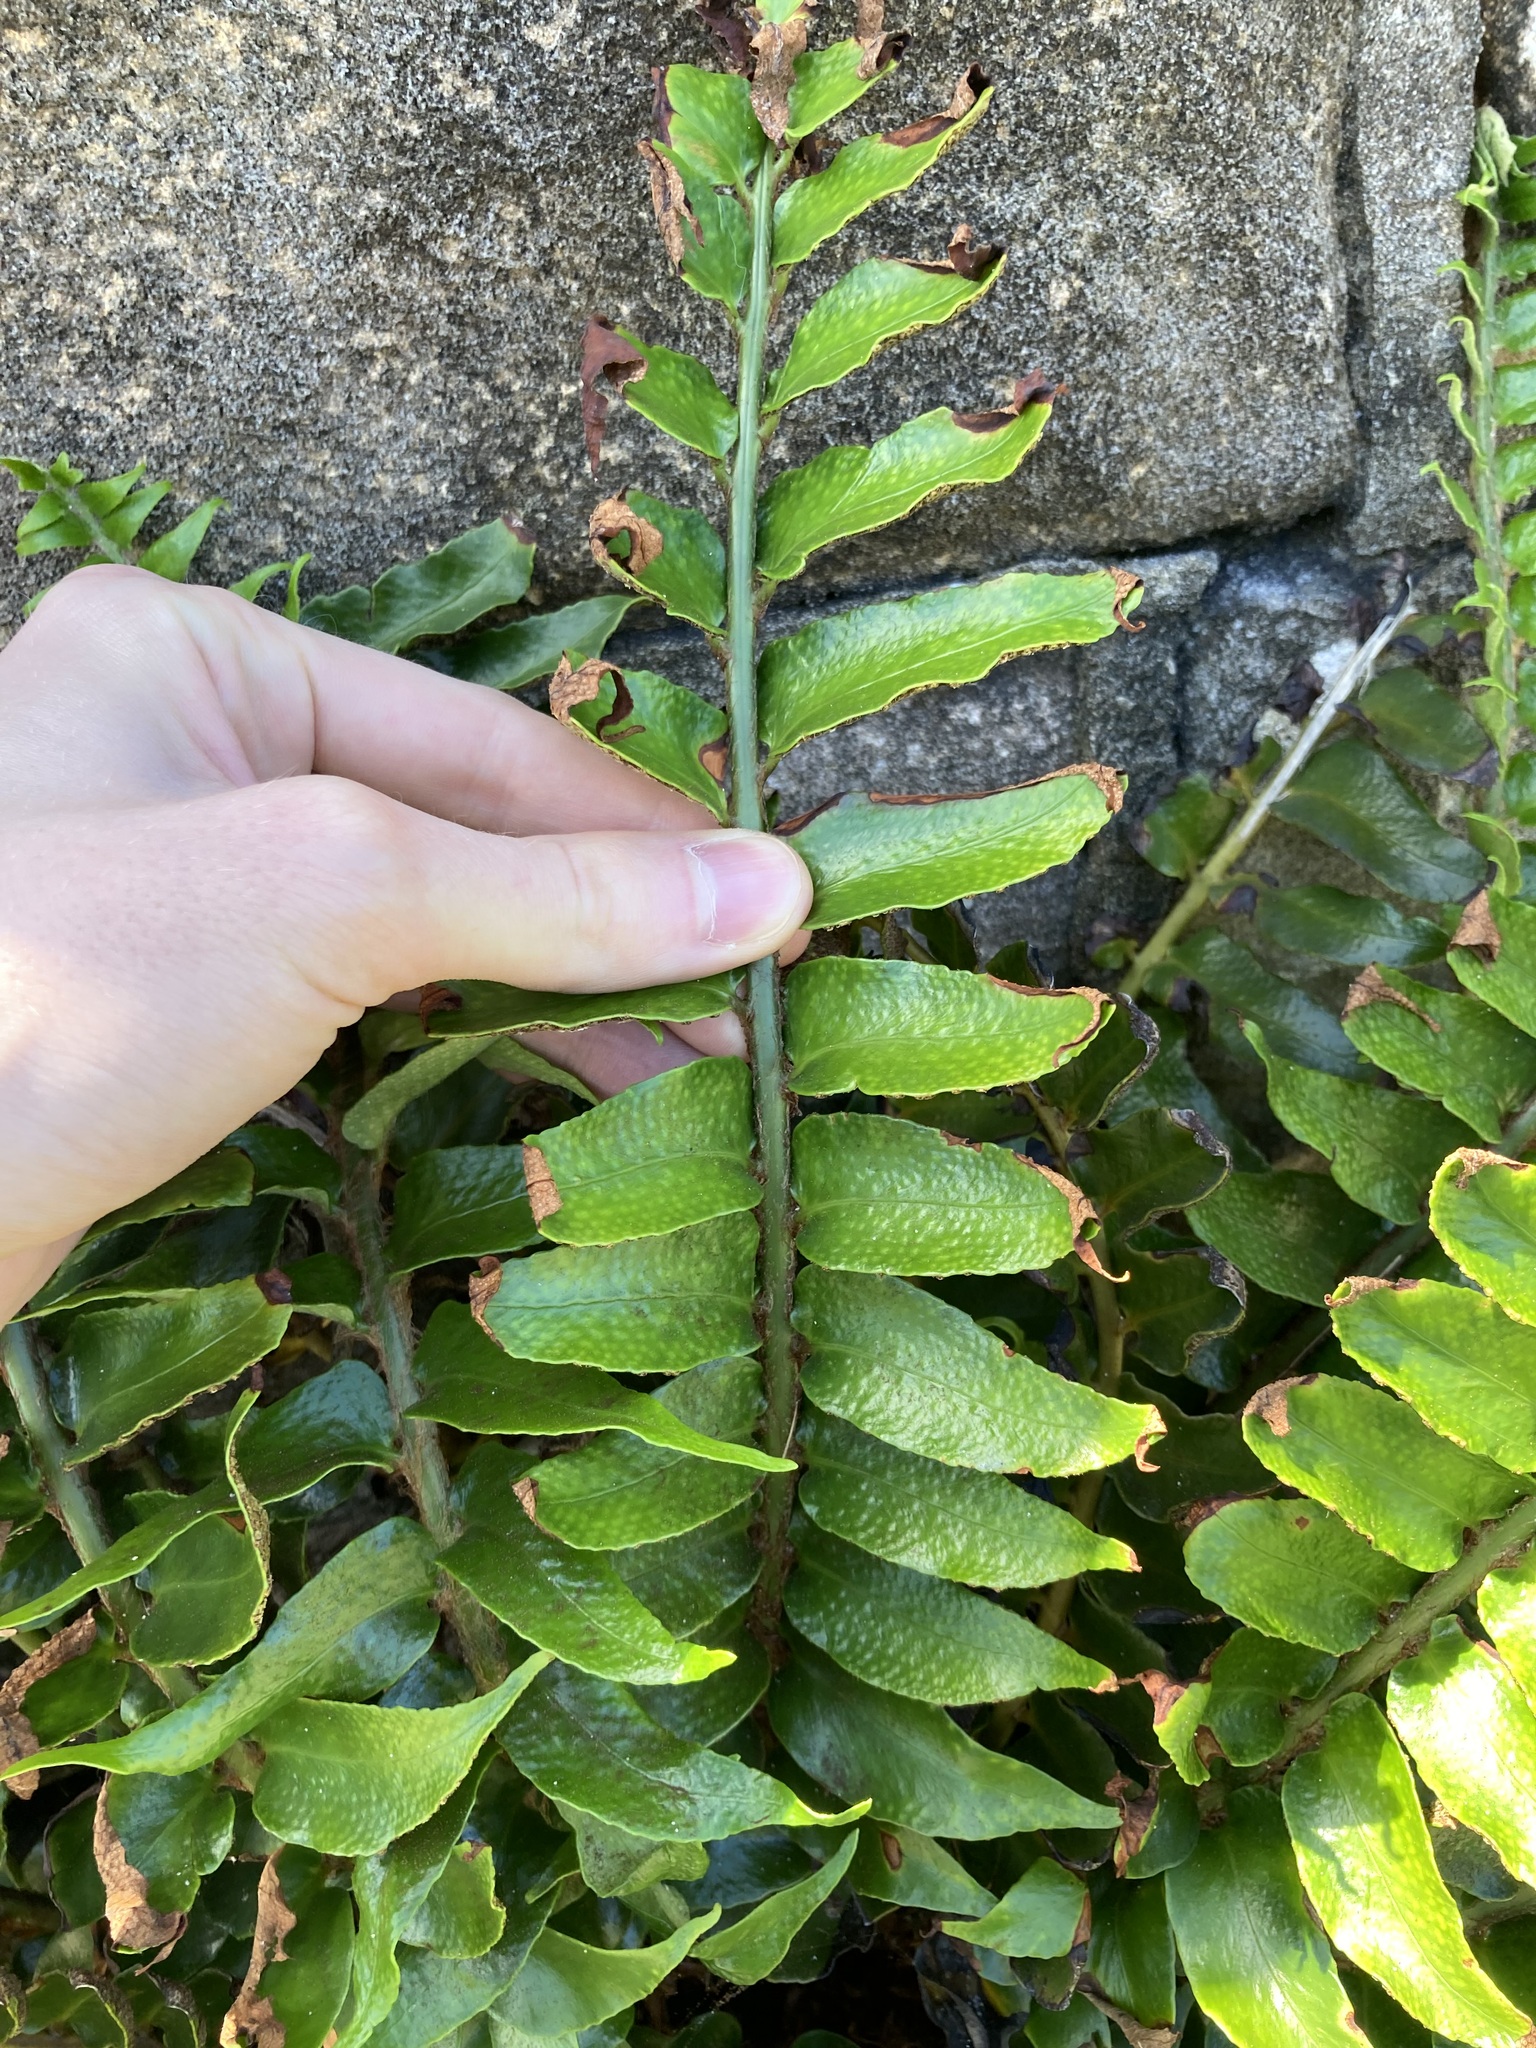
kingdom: Plantae
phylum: Tracheophyta
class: Polypodiopsida
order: Polypodiales
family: Dryopteridaceae
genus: Cyrtomium
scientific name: Cyrtomium falcatum
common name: House holly-fern
